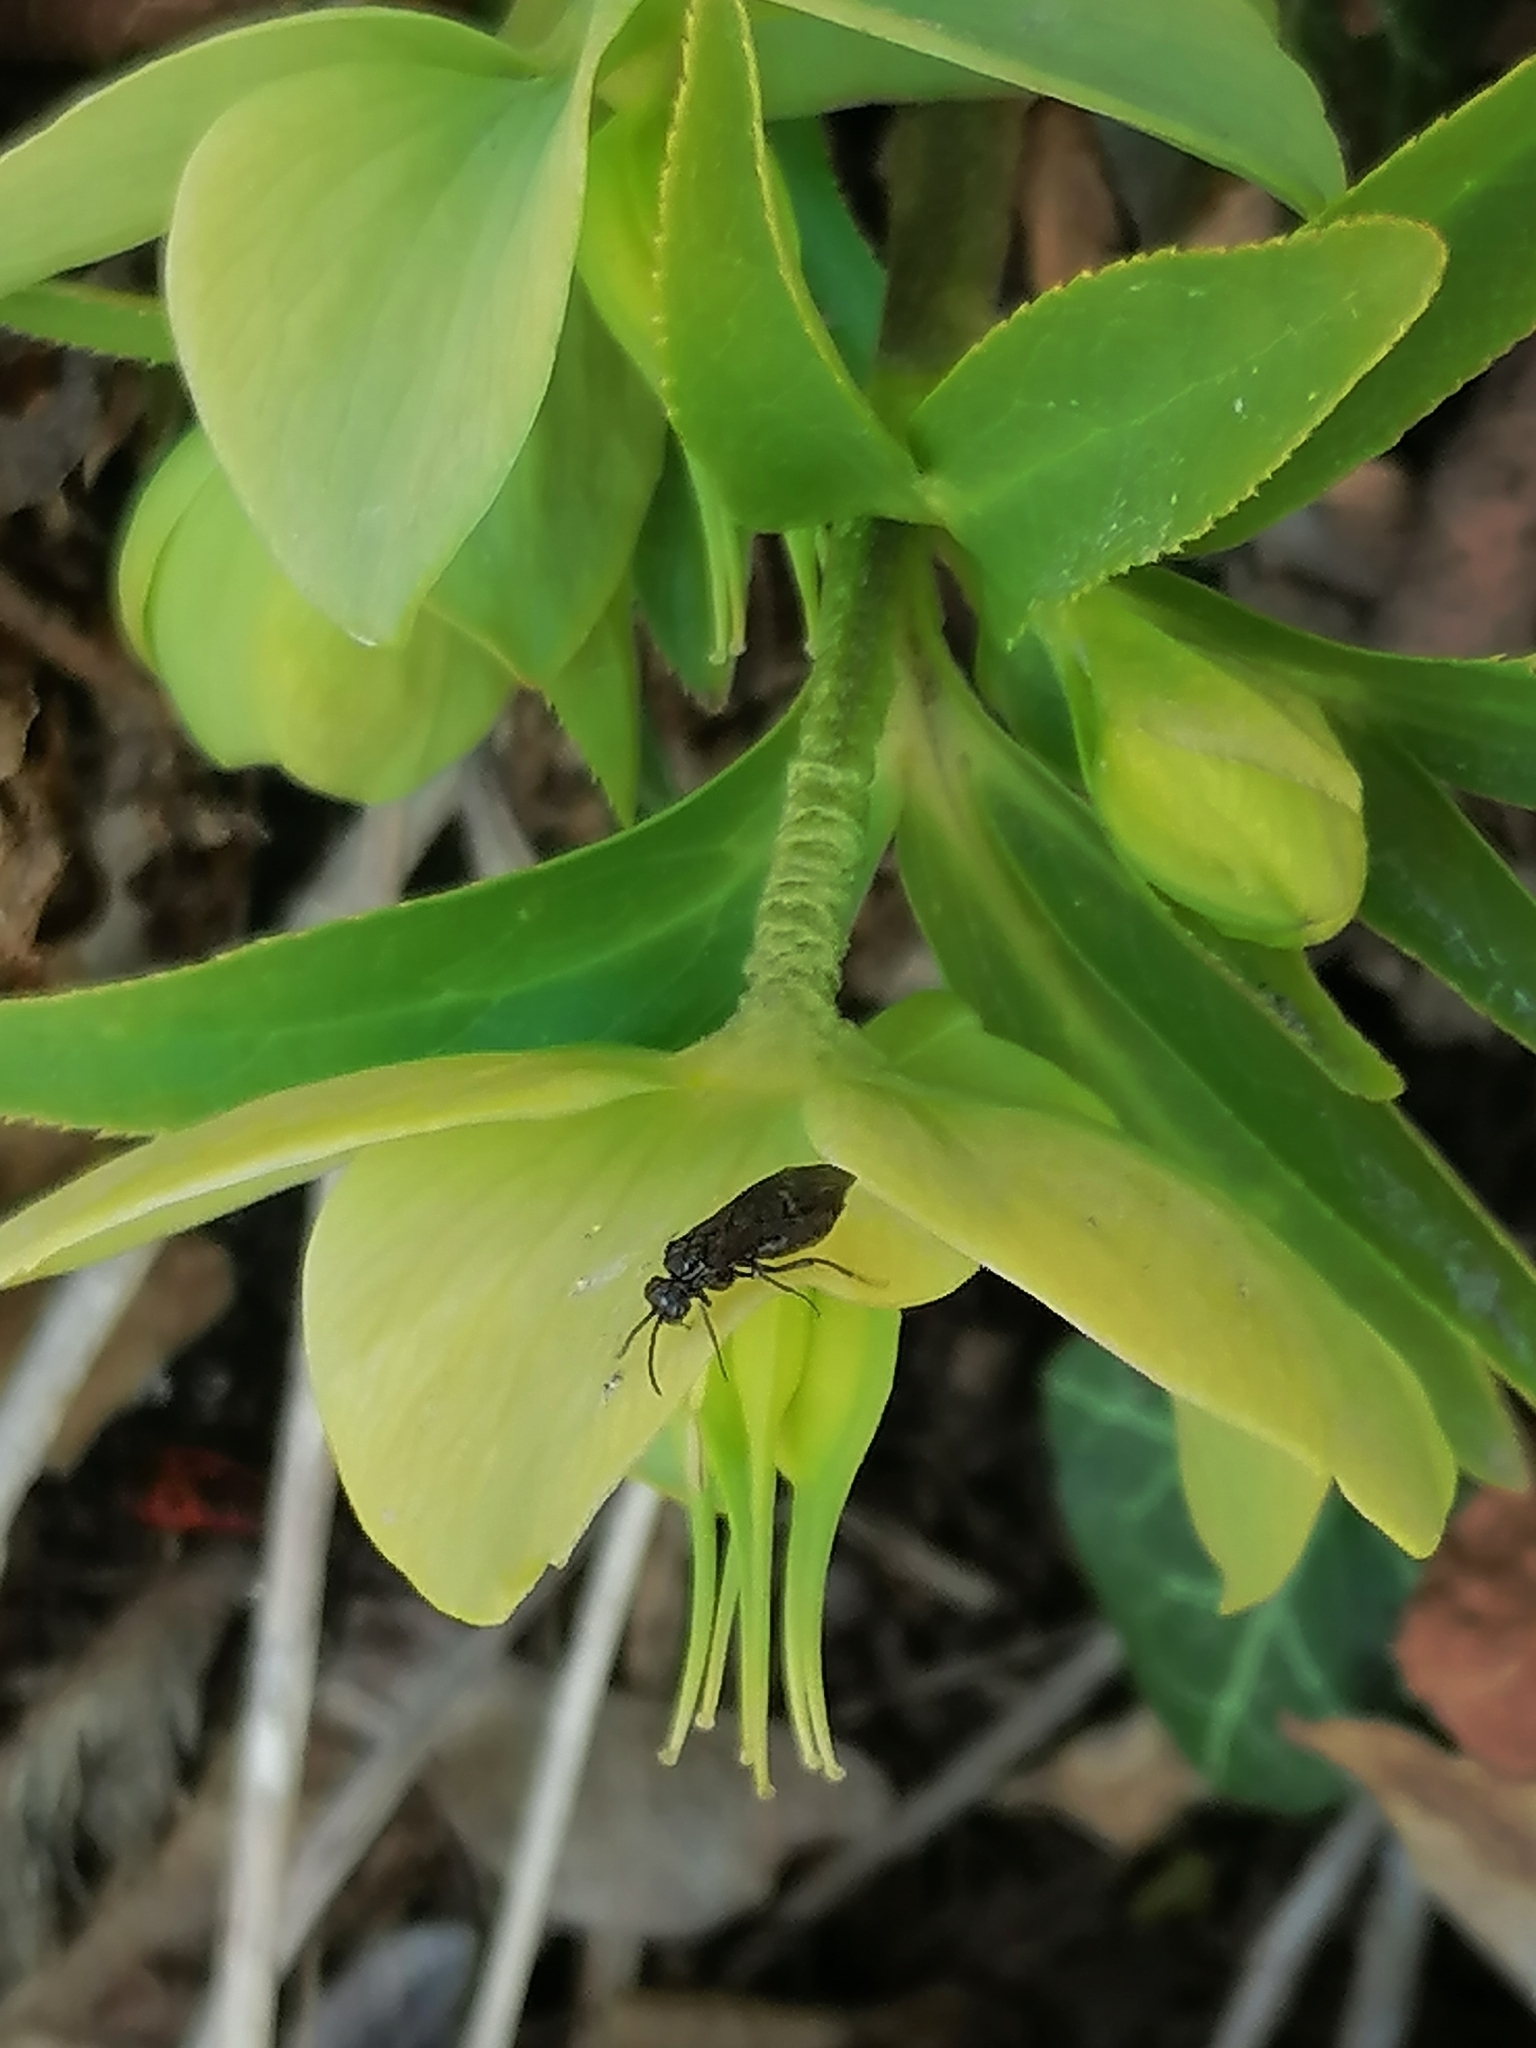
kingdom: Plantae
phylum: Tracheophyta
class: Magnoliopsida
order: Ranunculales
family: Ranunculaceae
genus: Helleborus
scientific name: Helleborus odorus
